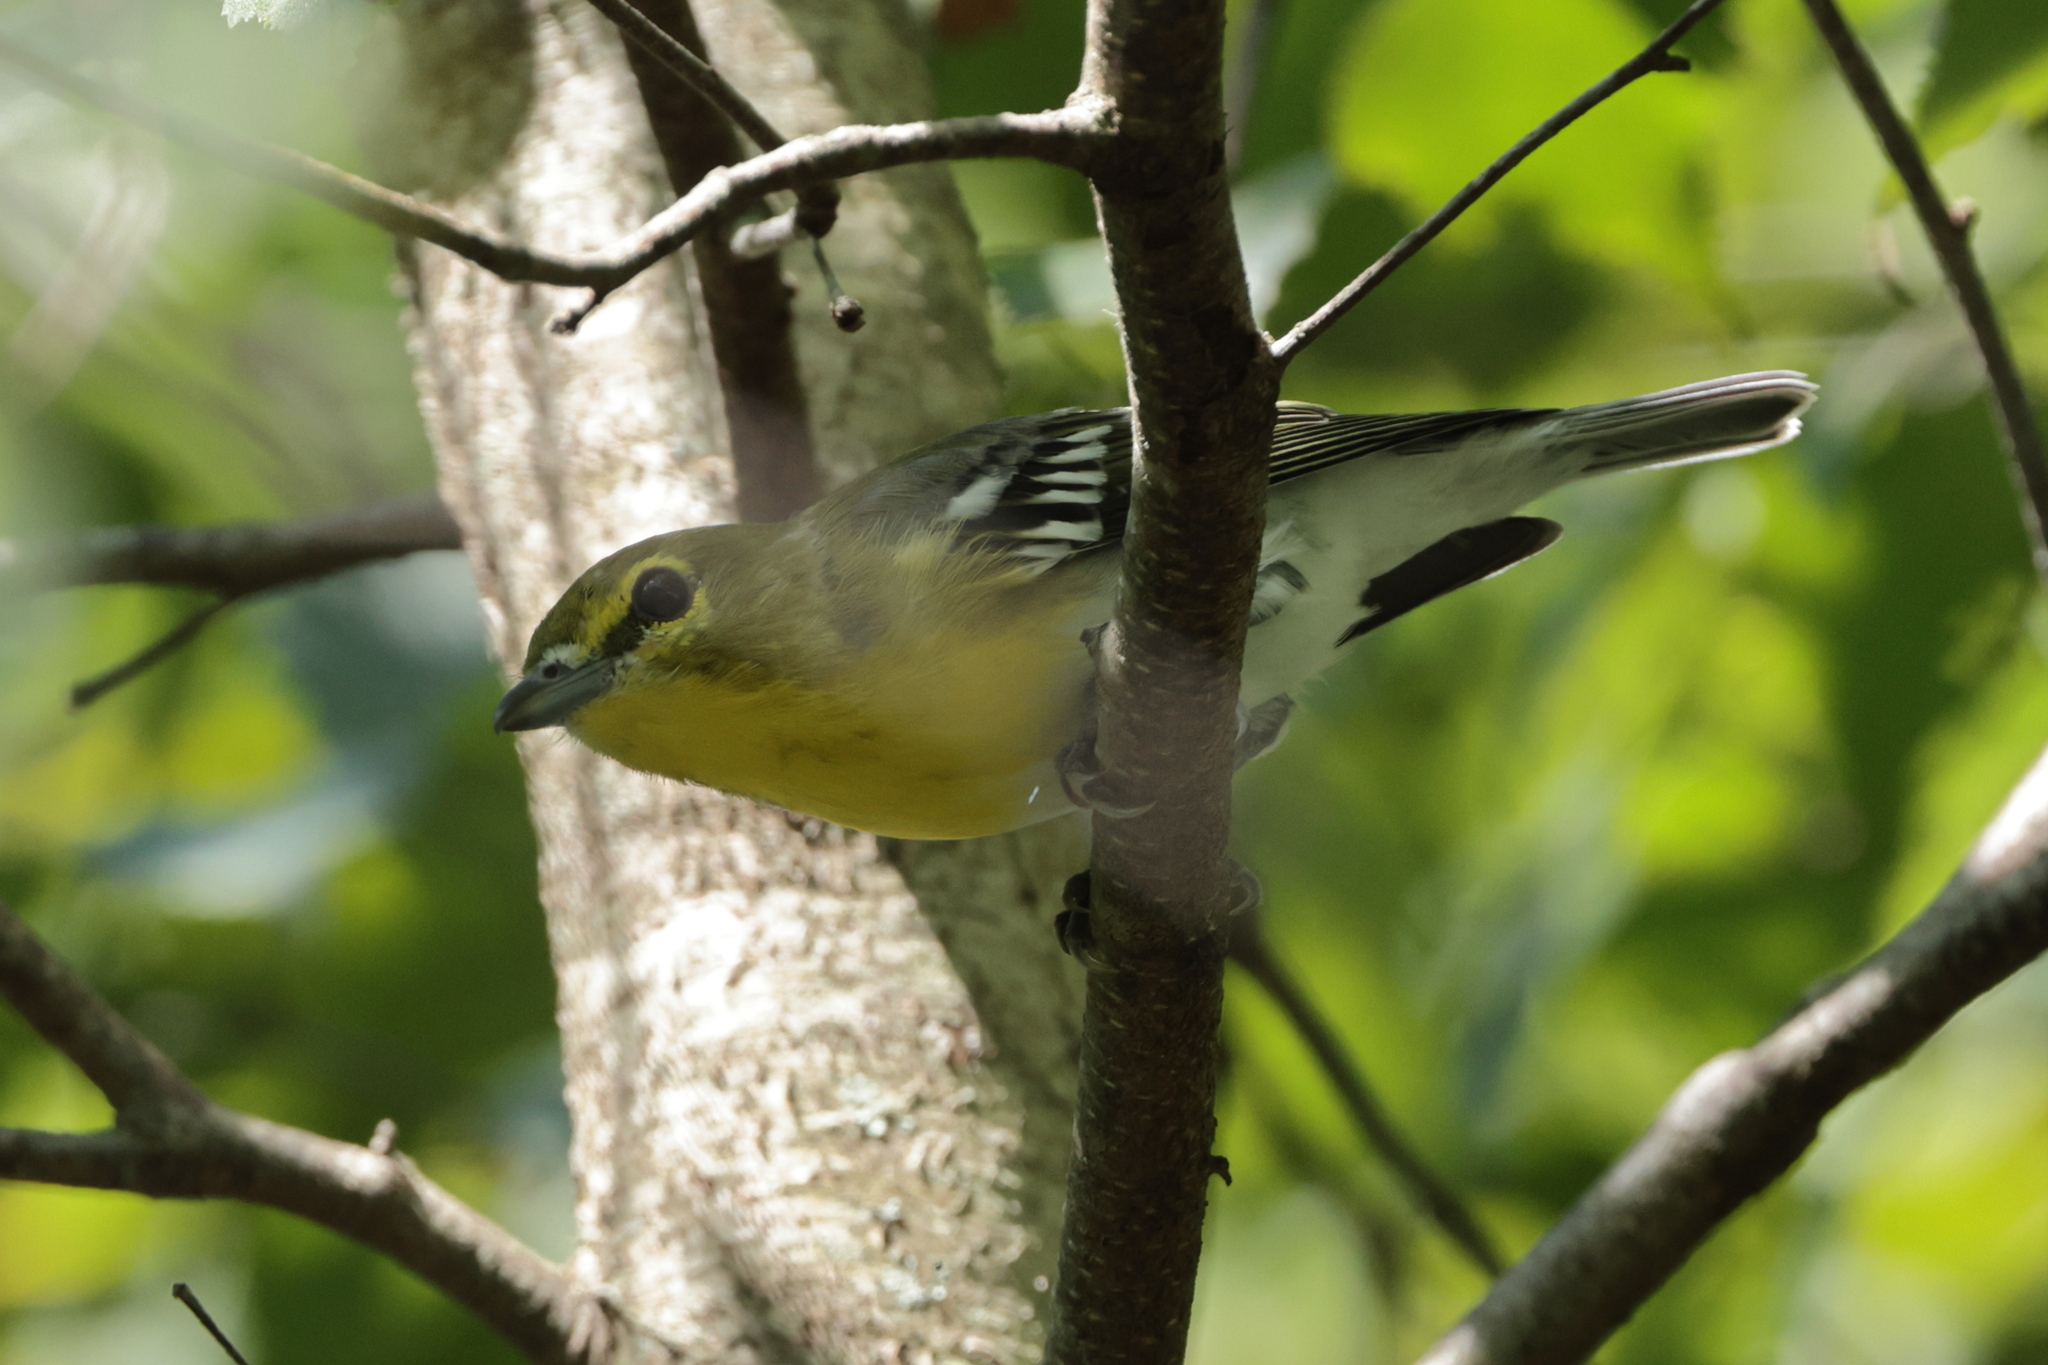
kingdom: Animalia
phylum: Chordata
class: Aves
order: Passeriformes
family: Vireonidae
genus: Vireo
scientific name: Vireo flavifrons
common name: Yellow-throated vireo
